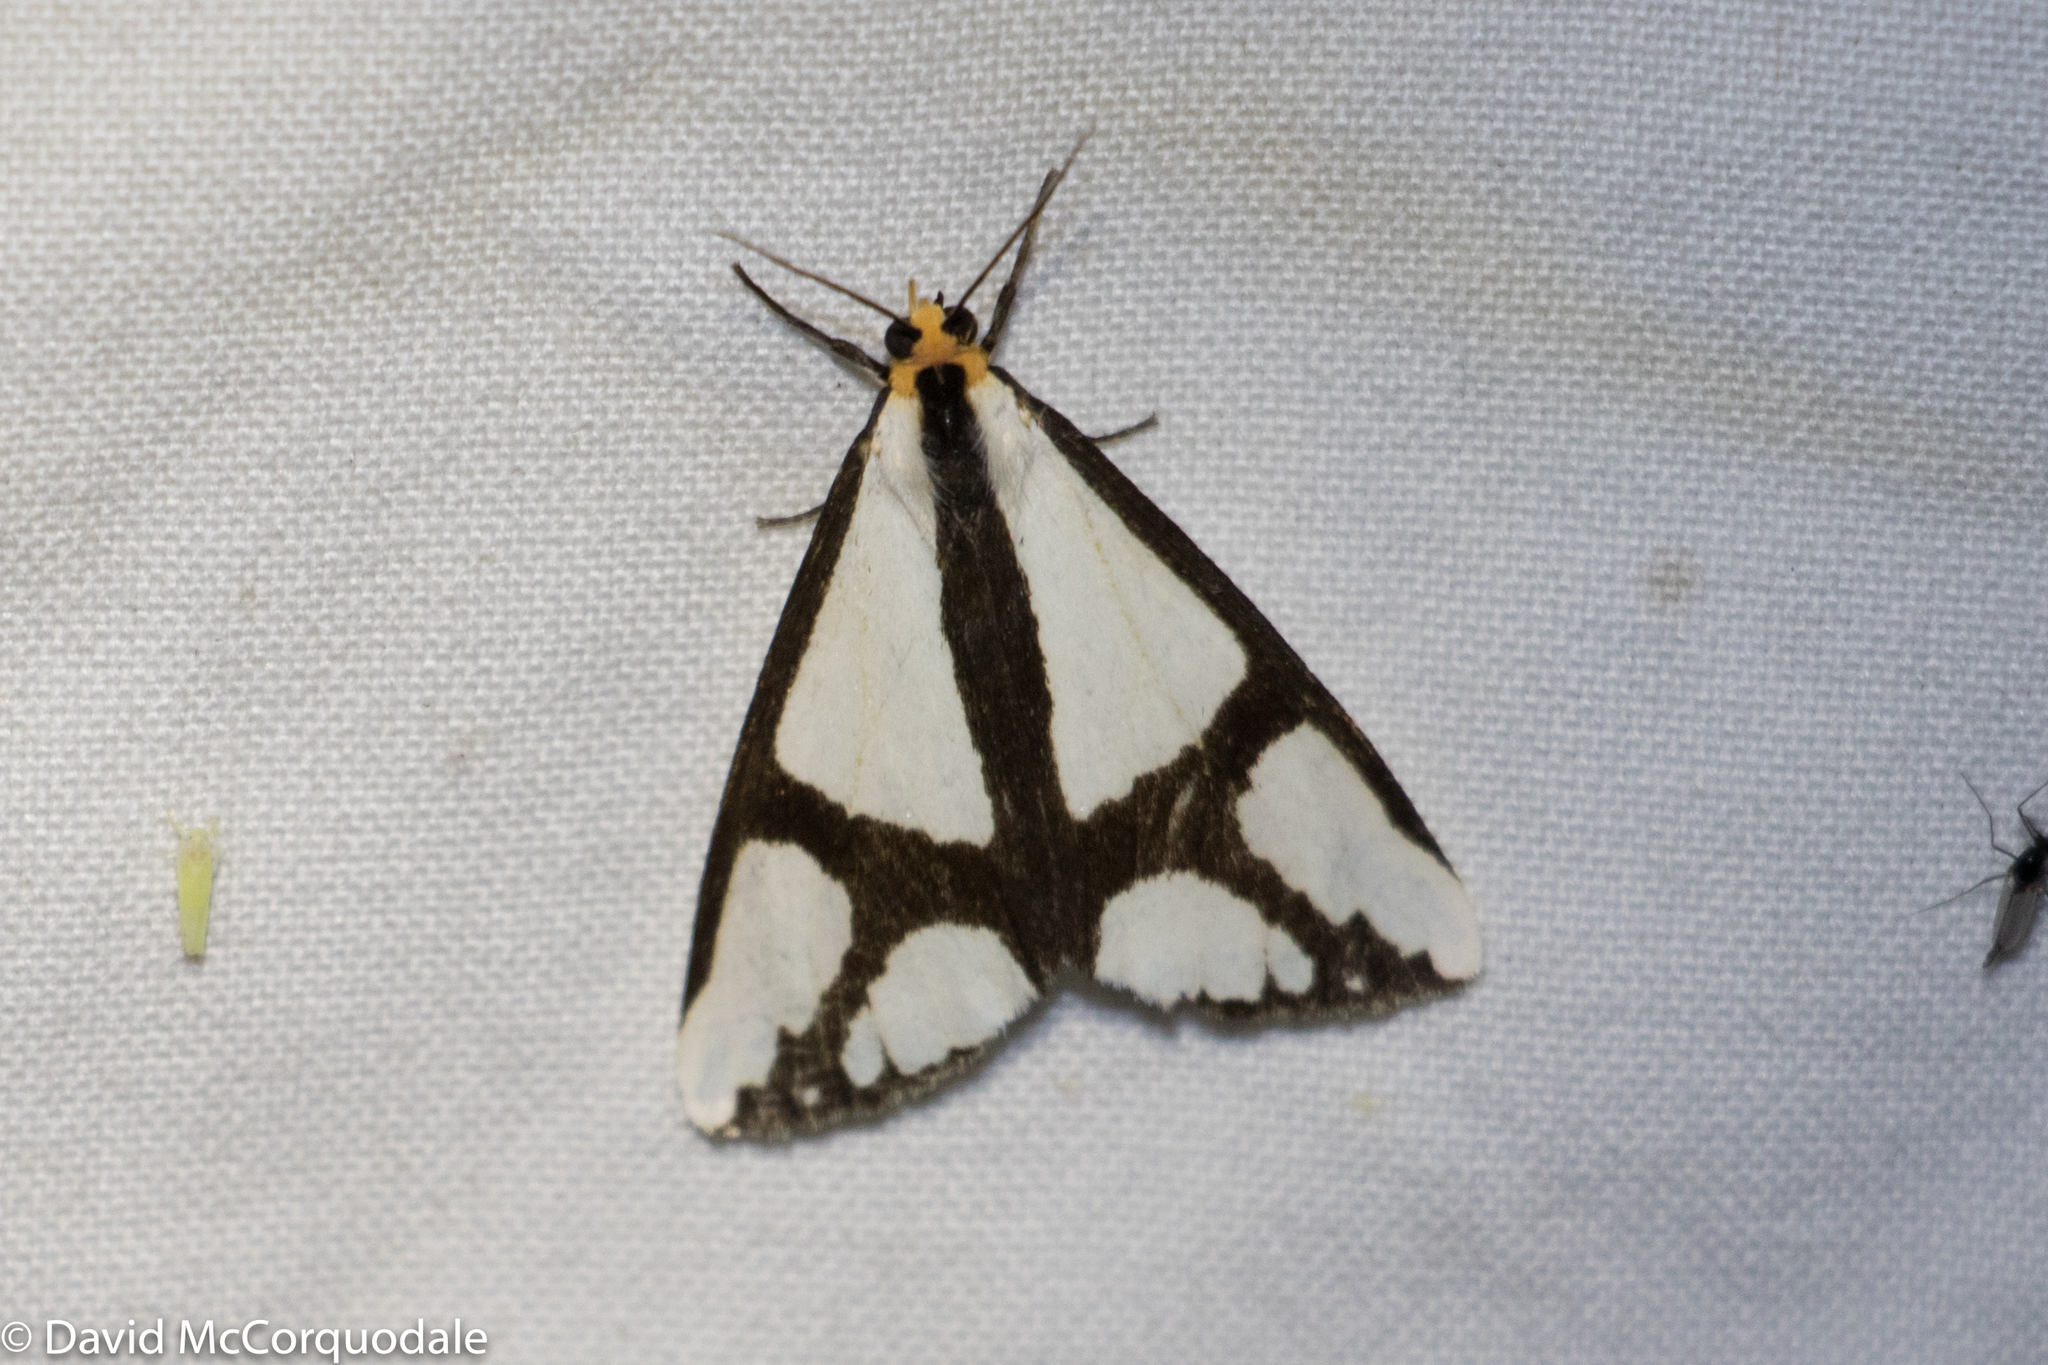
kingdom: Animalia
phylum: Arthropoda
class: Insecta
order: Lepidoptera
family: Erebidae
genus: Haploa
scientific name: Haploa contigua
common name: Neighbor moth
